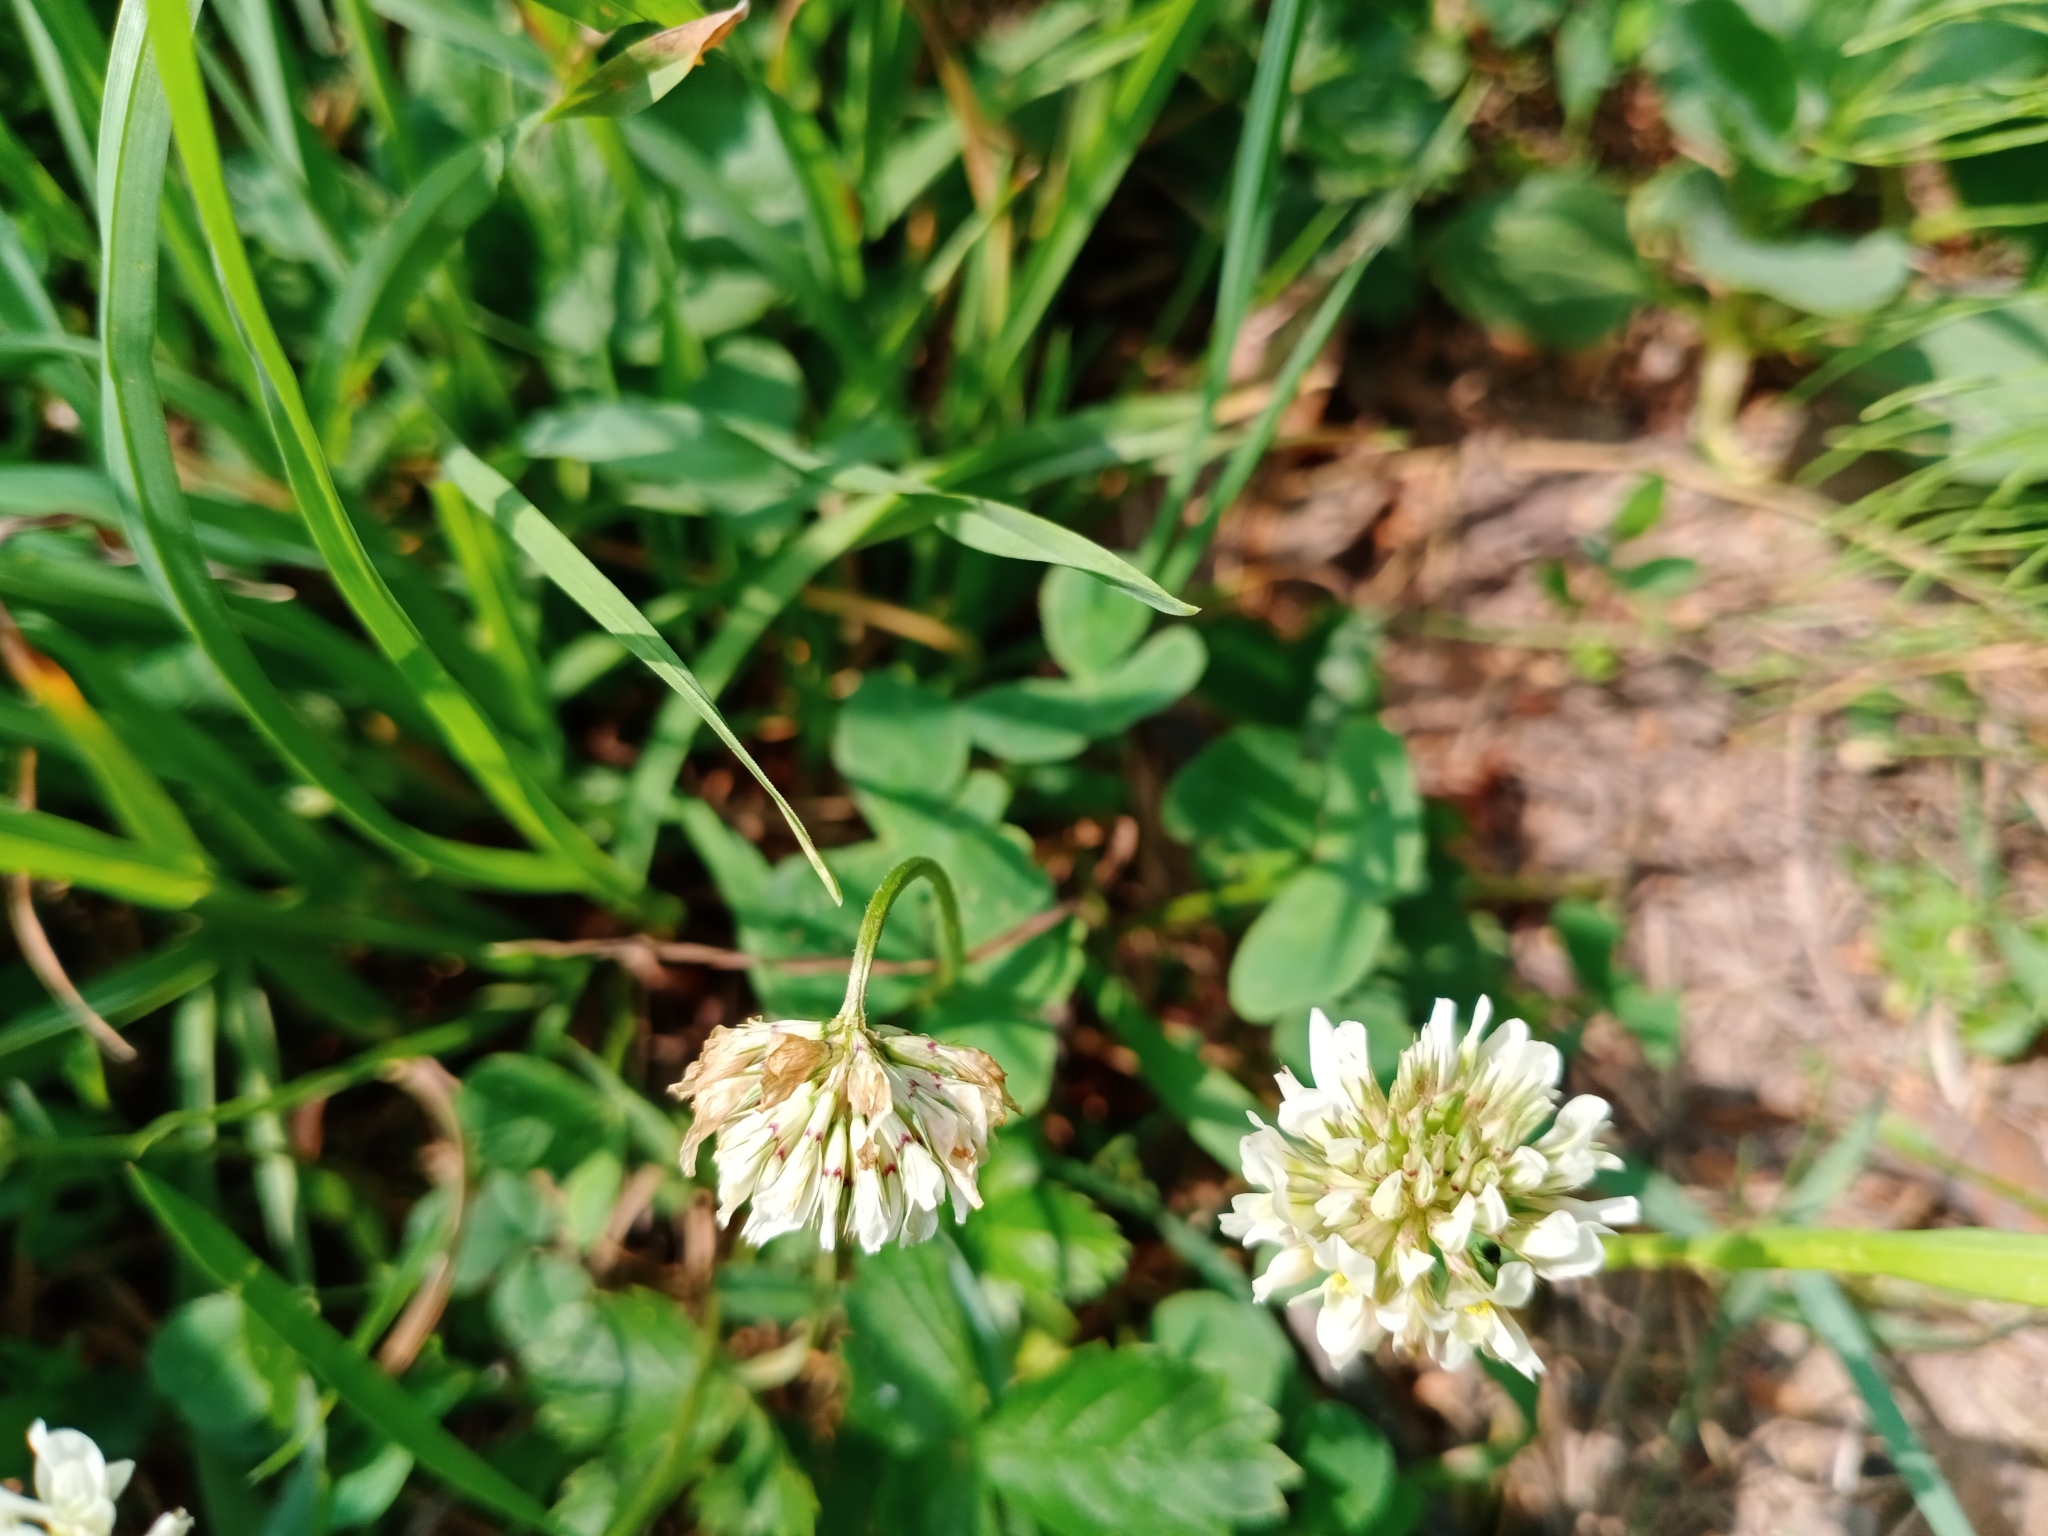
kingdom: Plantae
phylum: Tracheophyta
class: Magnoliopsida
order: Fabales
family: Fabaceae
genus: Trifolium
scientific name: Trifolium repens
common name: White clover
